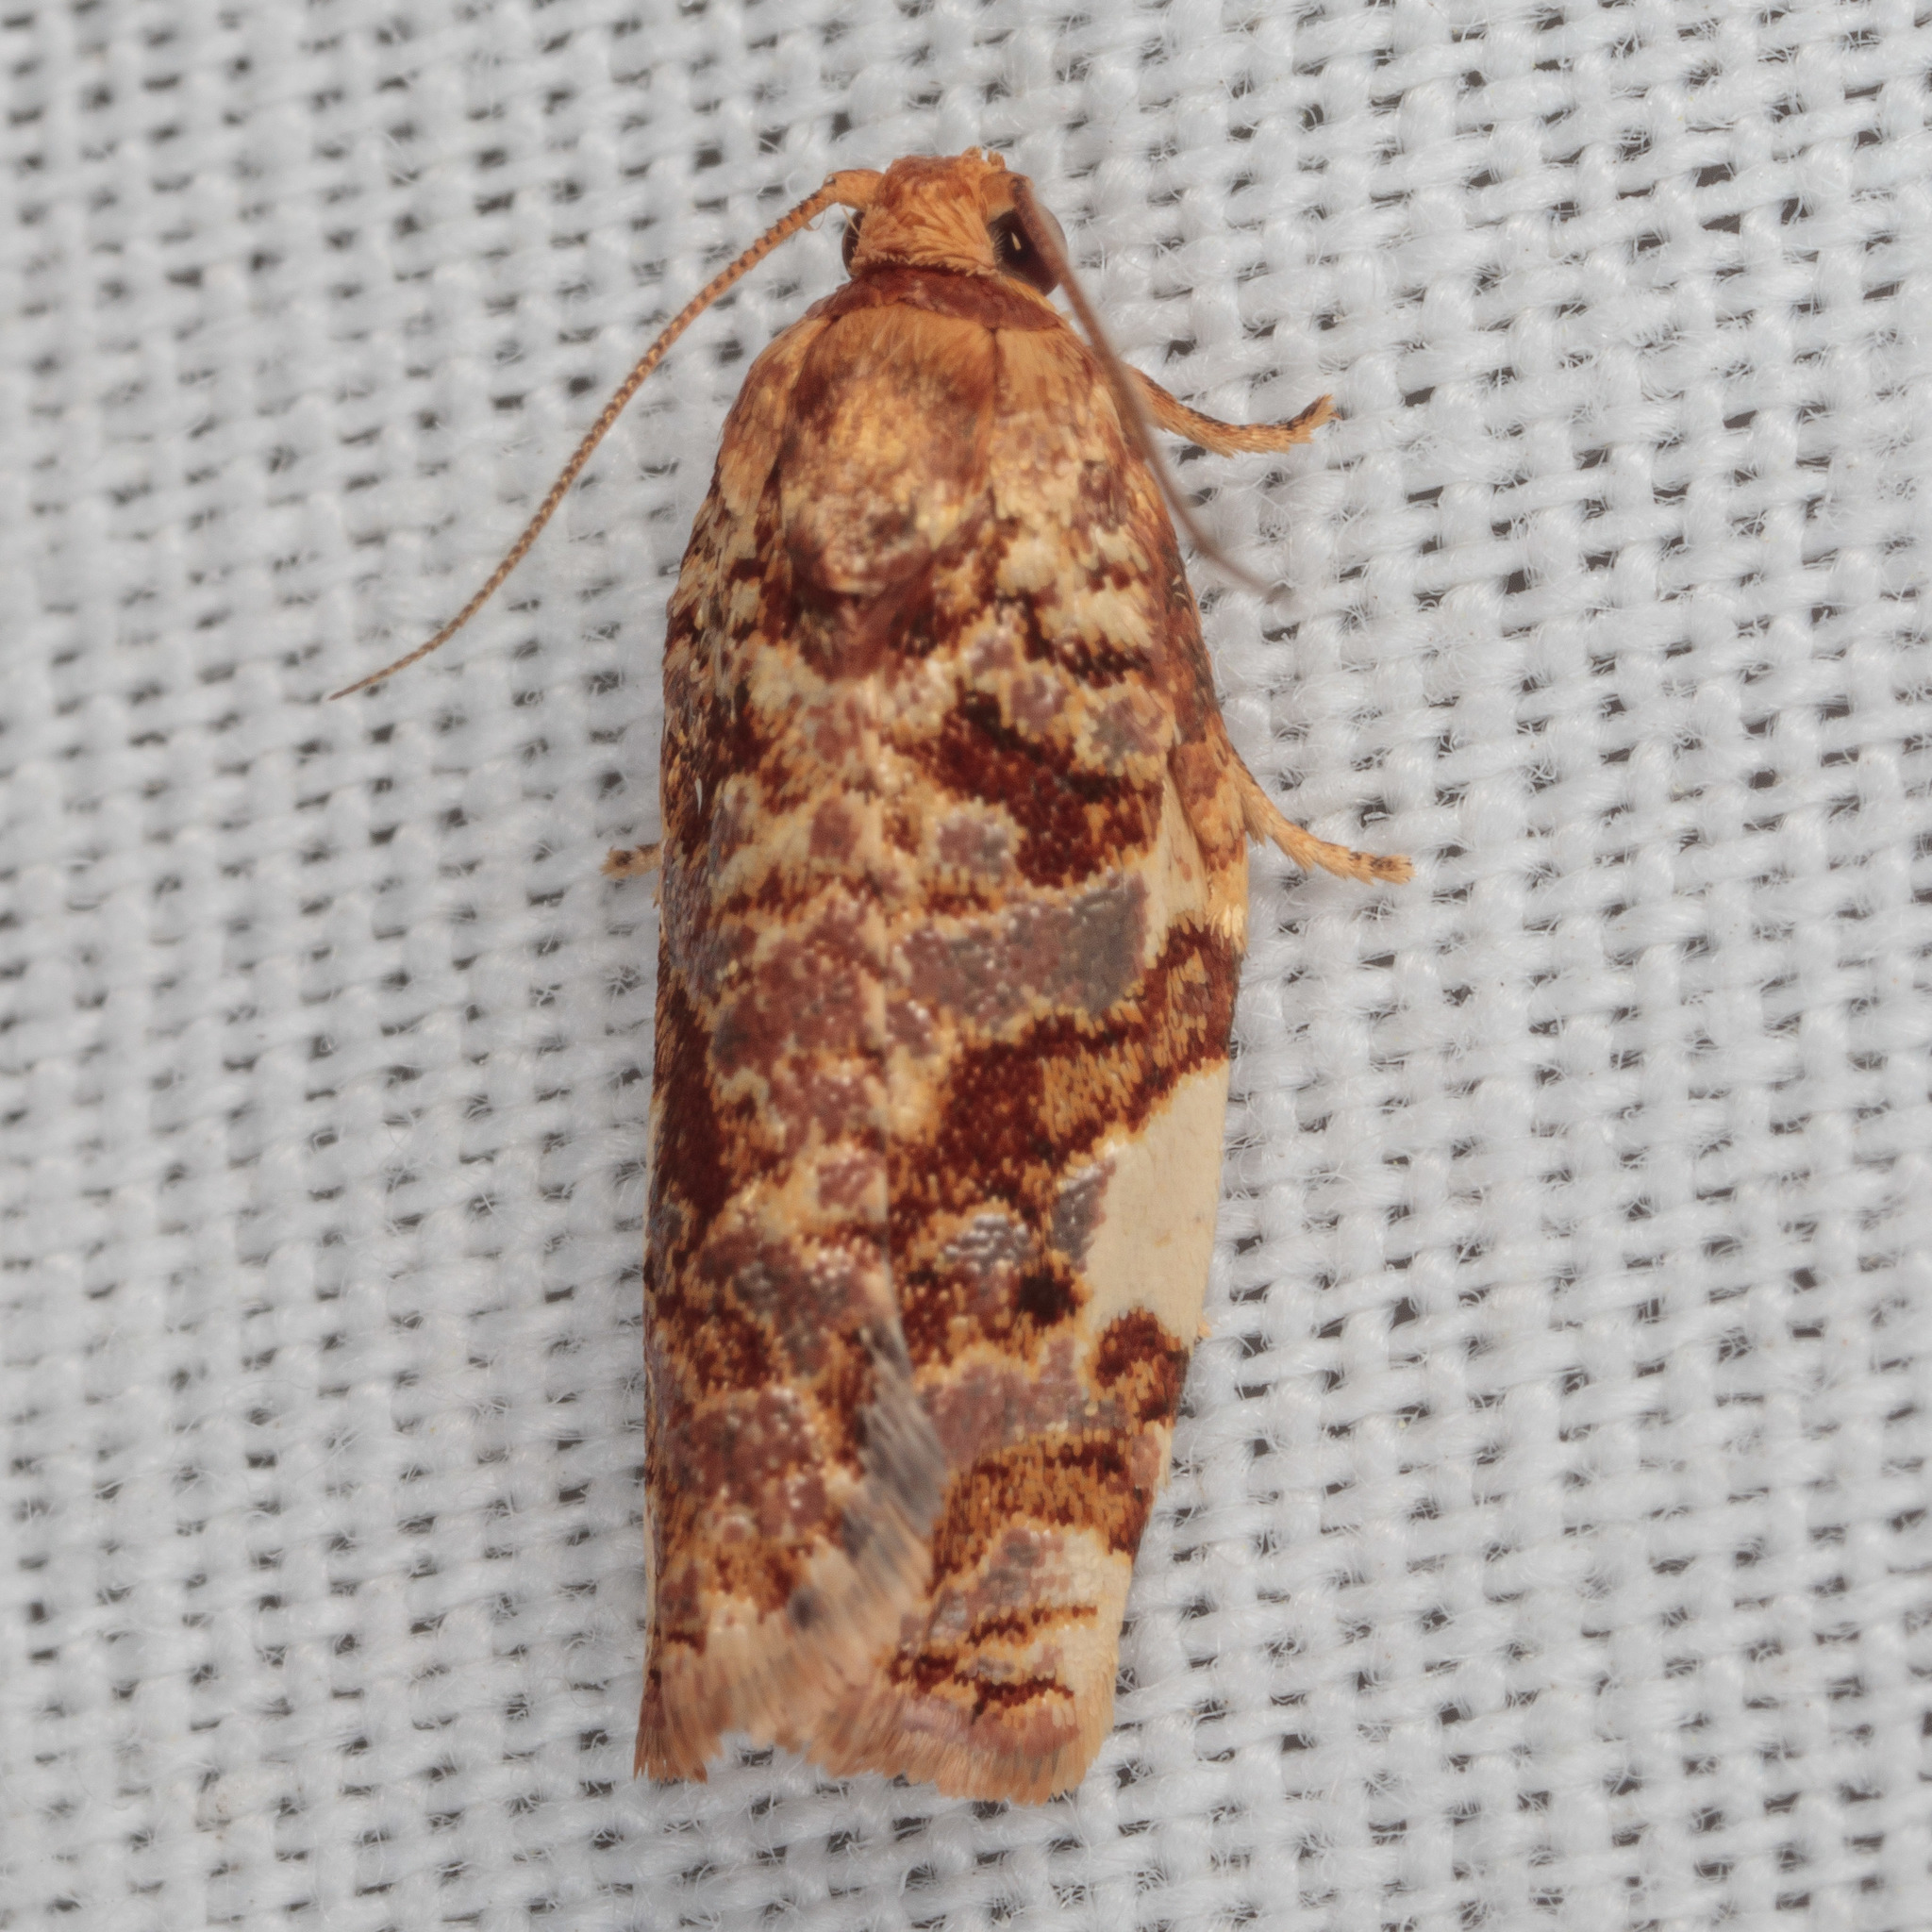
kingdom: Animalia
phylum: Arthropoda
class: Insecta
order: Lepidoptera
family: Tortricidae
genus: Archips
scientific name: Archips argyrospila
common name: Fruit-tree leafroller moth
